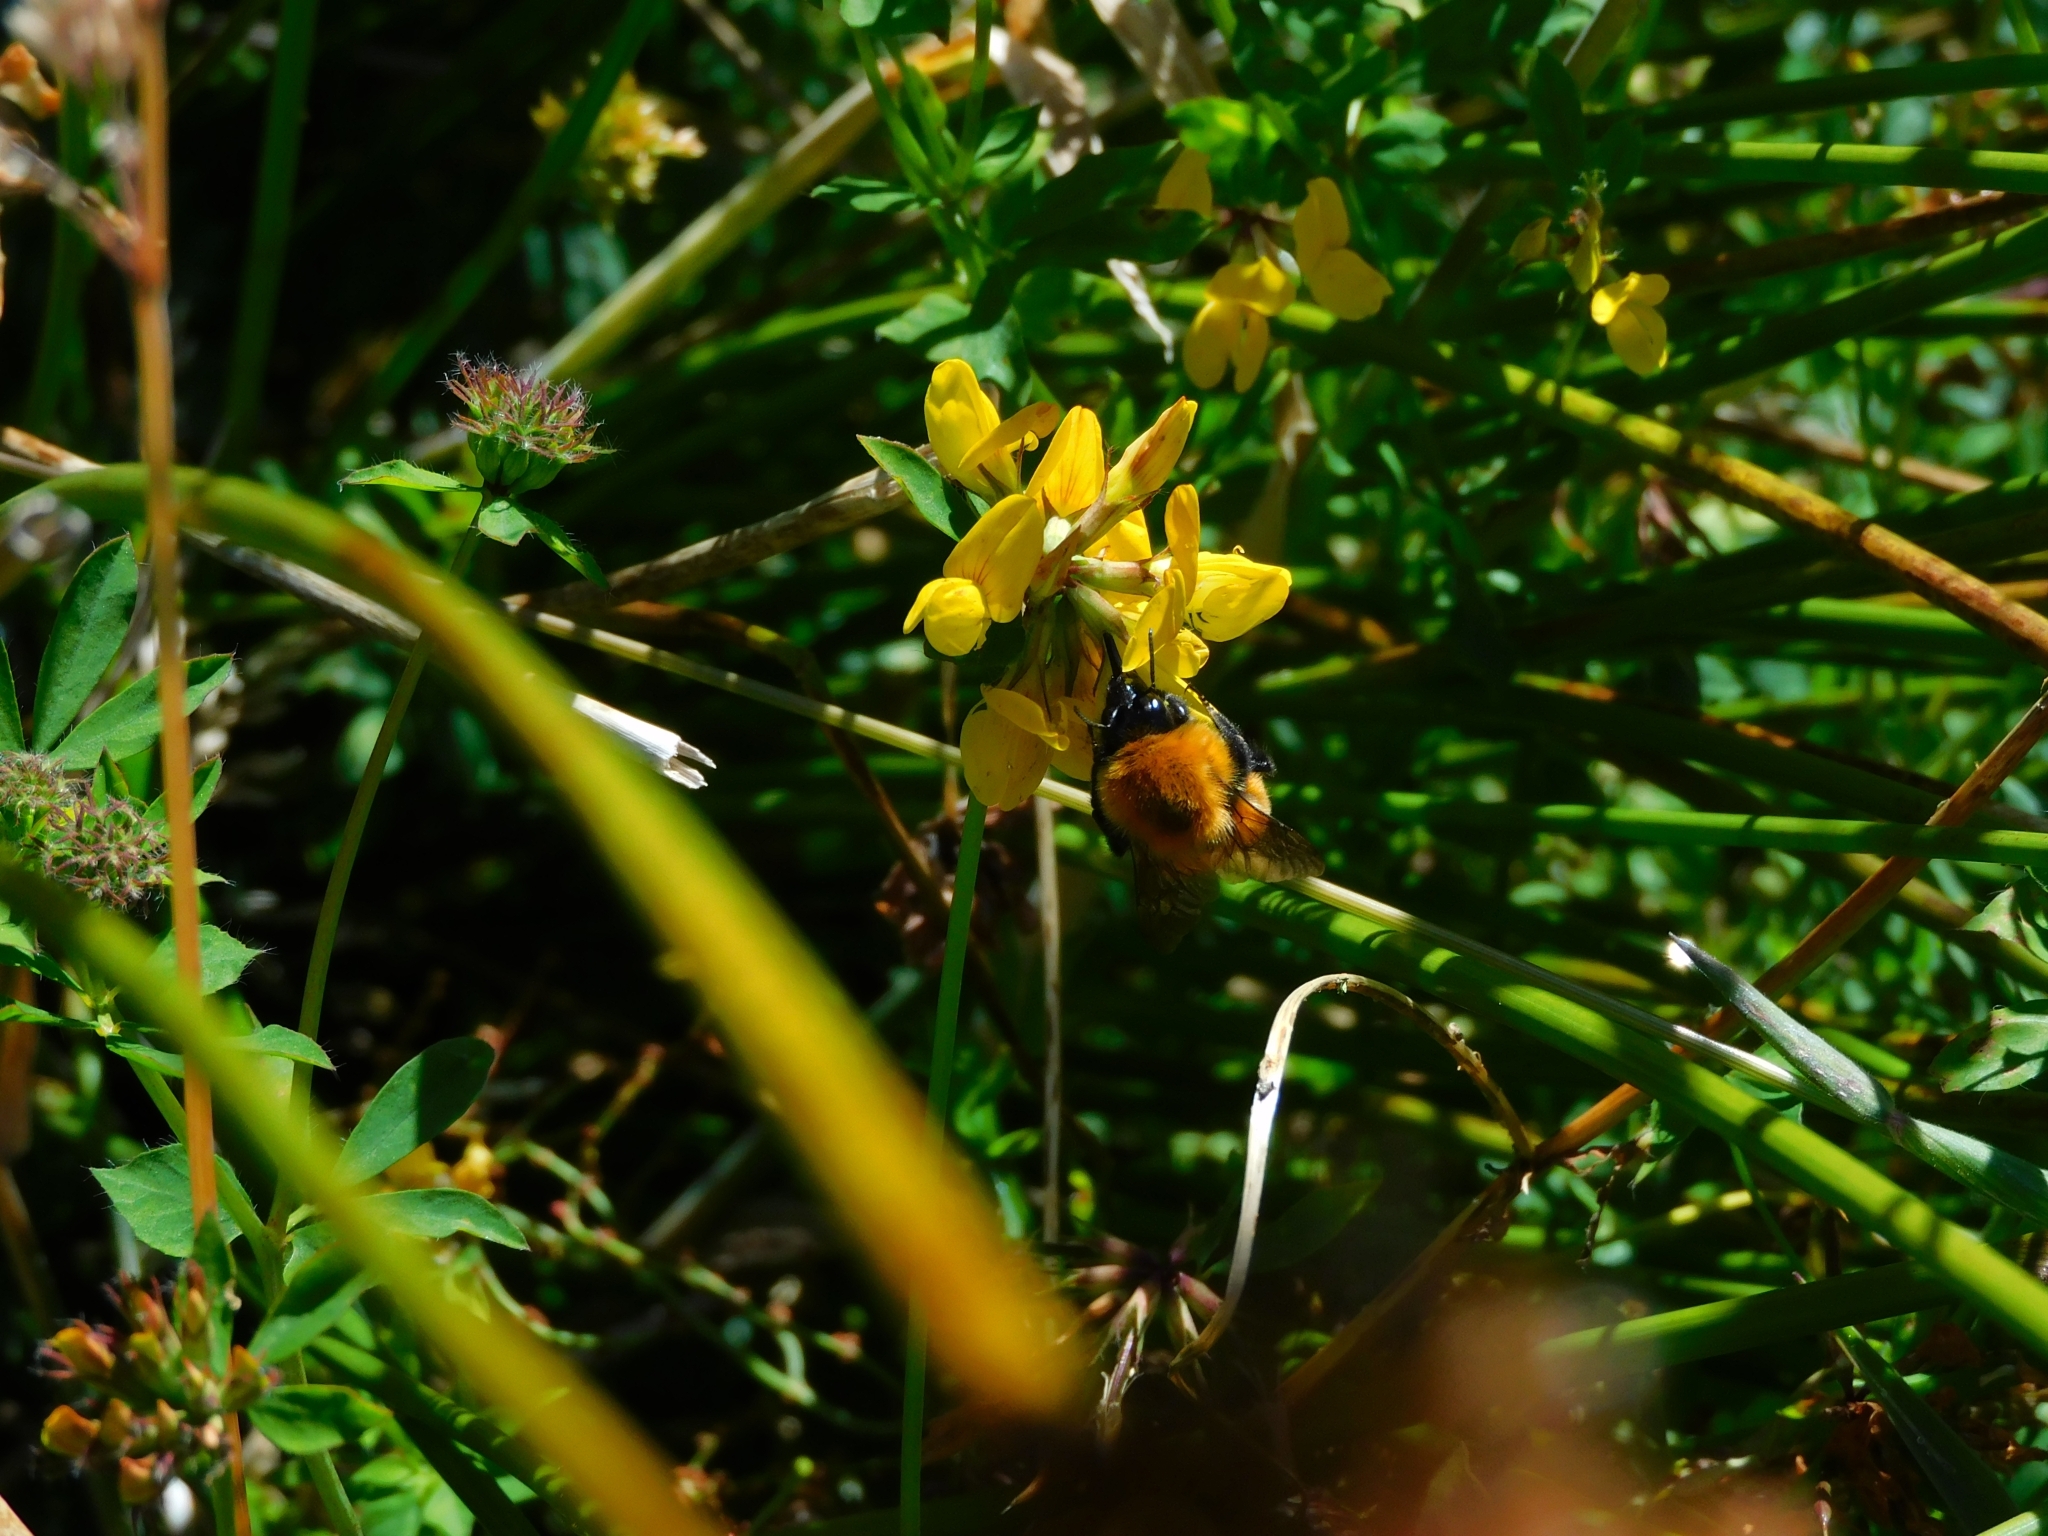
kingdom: Animalia
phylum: Arthropoda
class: Insecta
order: Hymenoptera
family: Apidae
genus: Bombus
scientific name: Bombus dahlbomii
